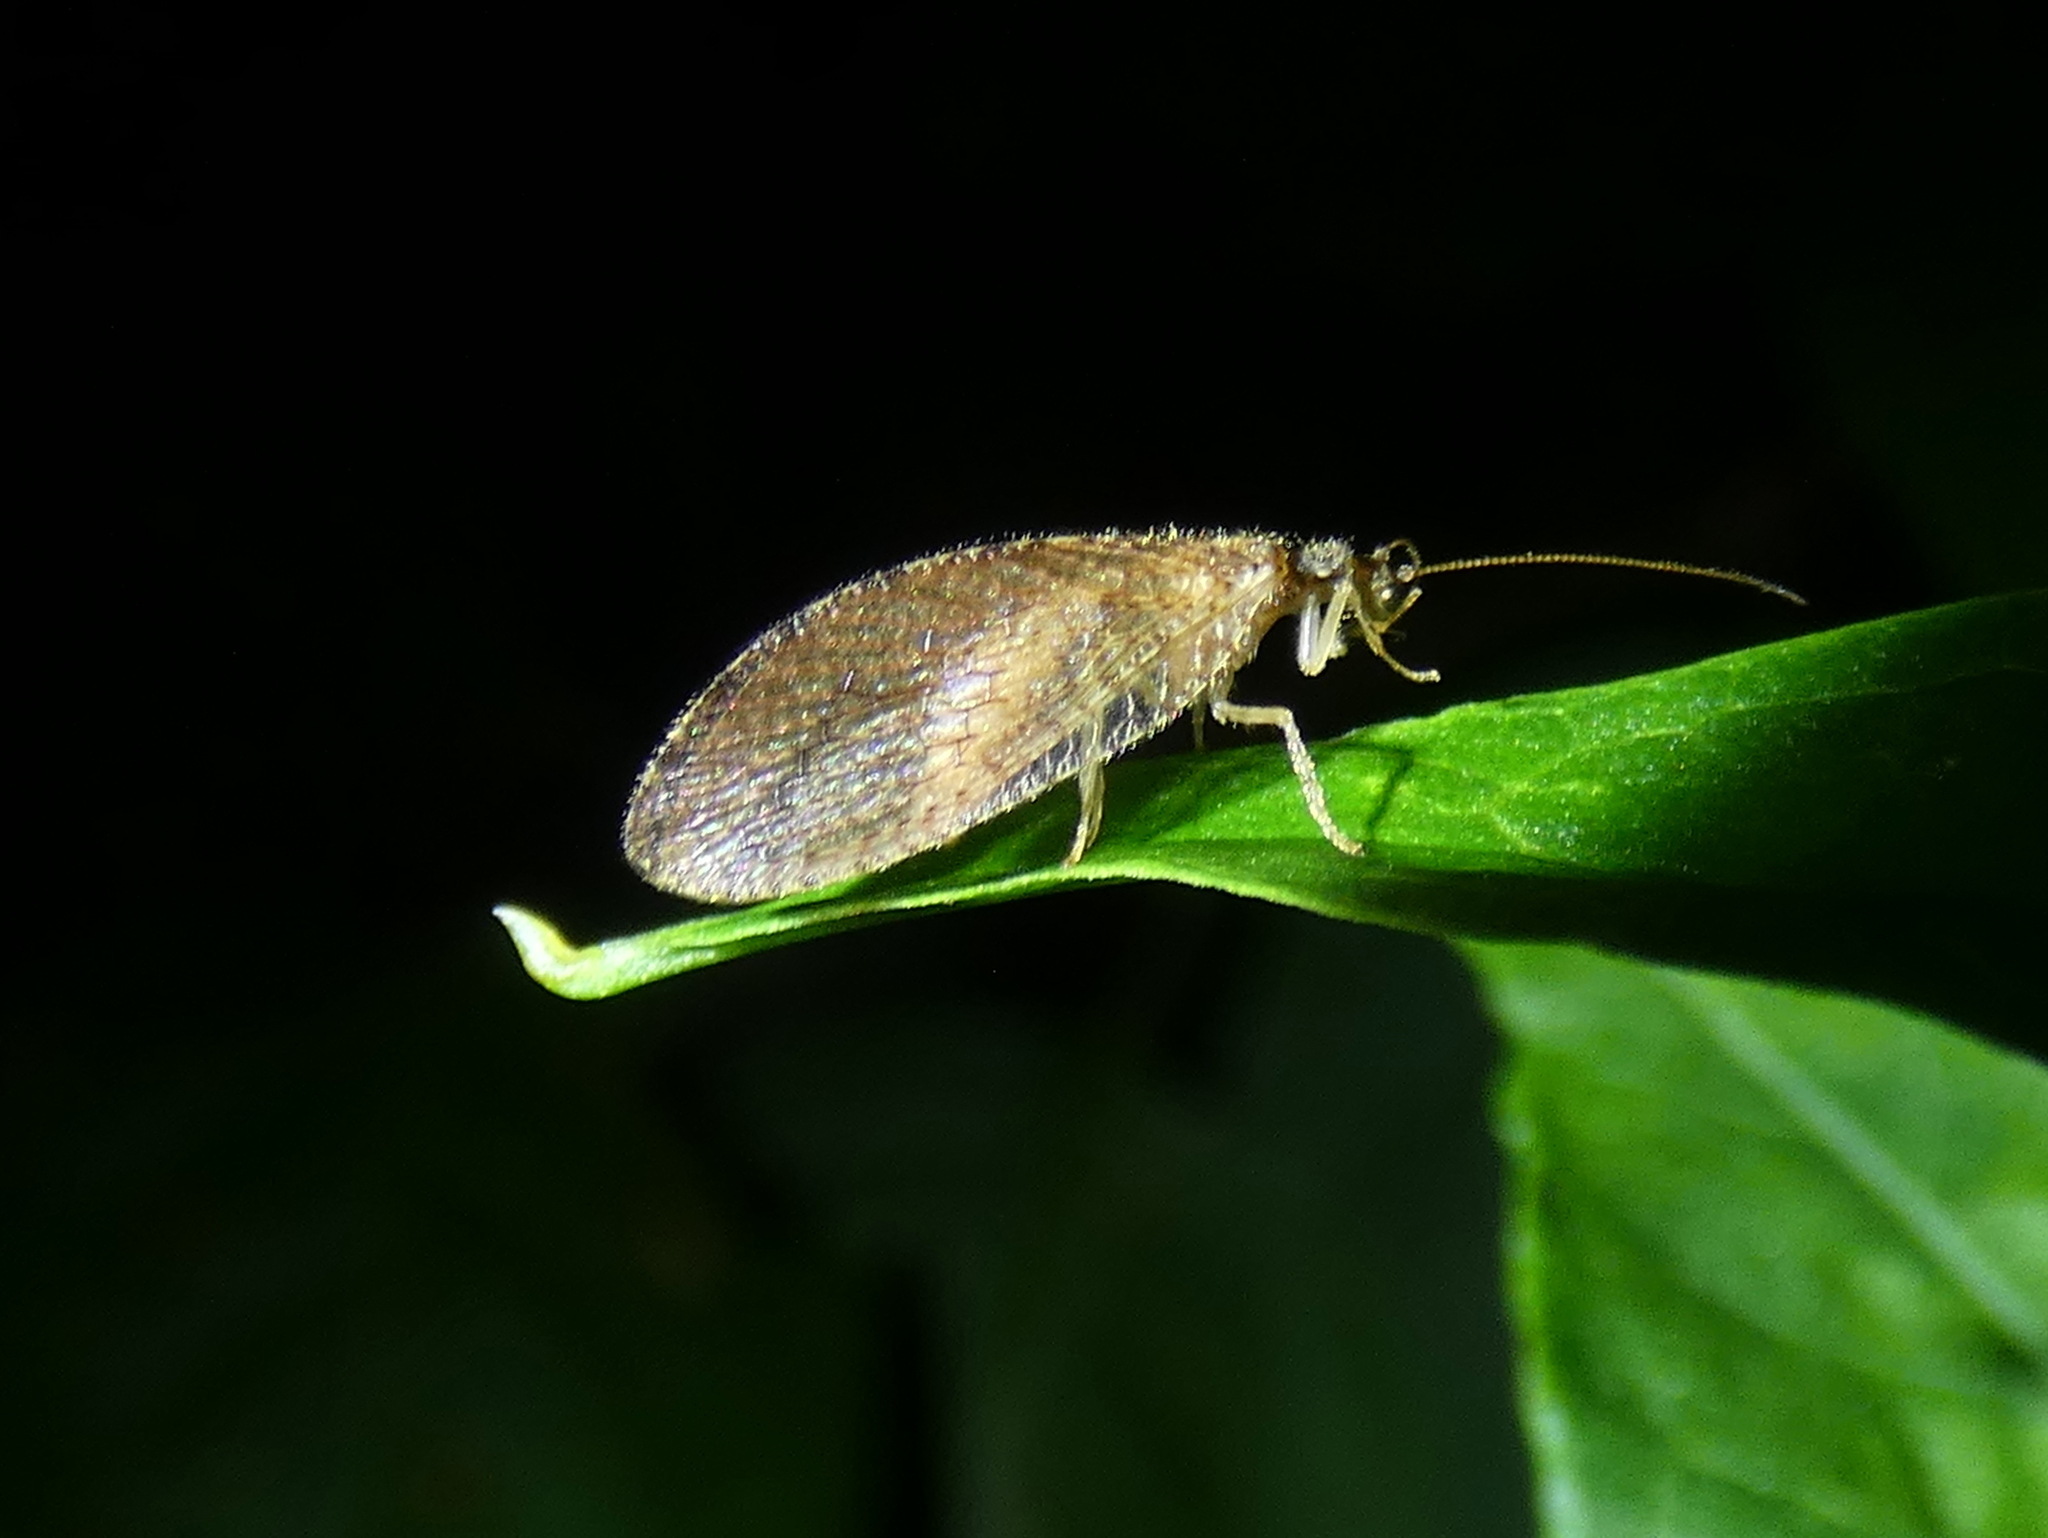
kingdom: Animalia
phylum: Arthropoda
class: Insecta
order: Neuroptera
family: Hemerobiidae
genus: Micromus
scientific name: Micromus posticus
